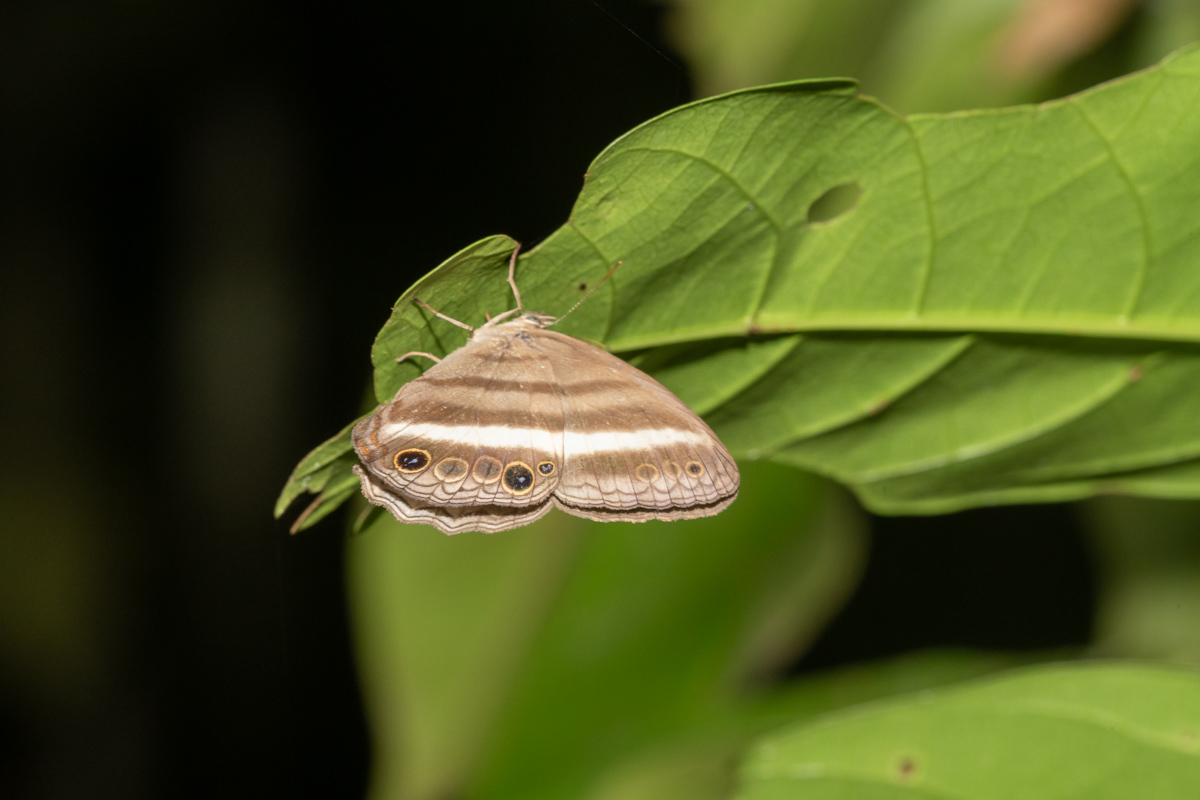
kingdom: Animalia
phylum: Arthropoda
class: Insecta
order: Lepidoptera
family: Nymphalidae
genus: Pareuptychia
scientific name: Pareuptychia summandosa
